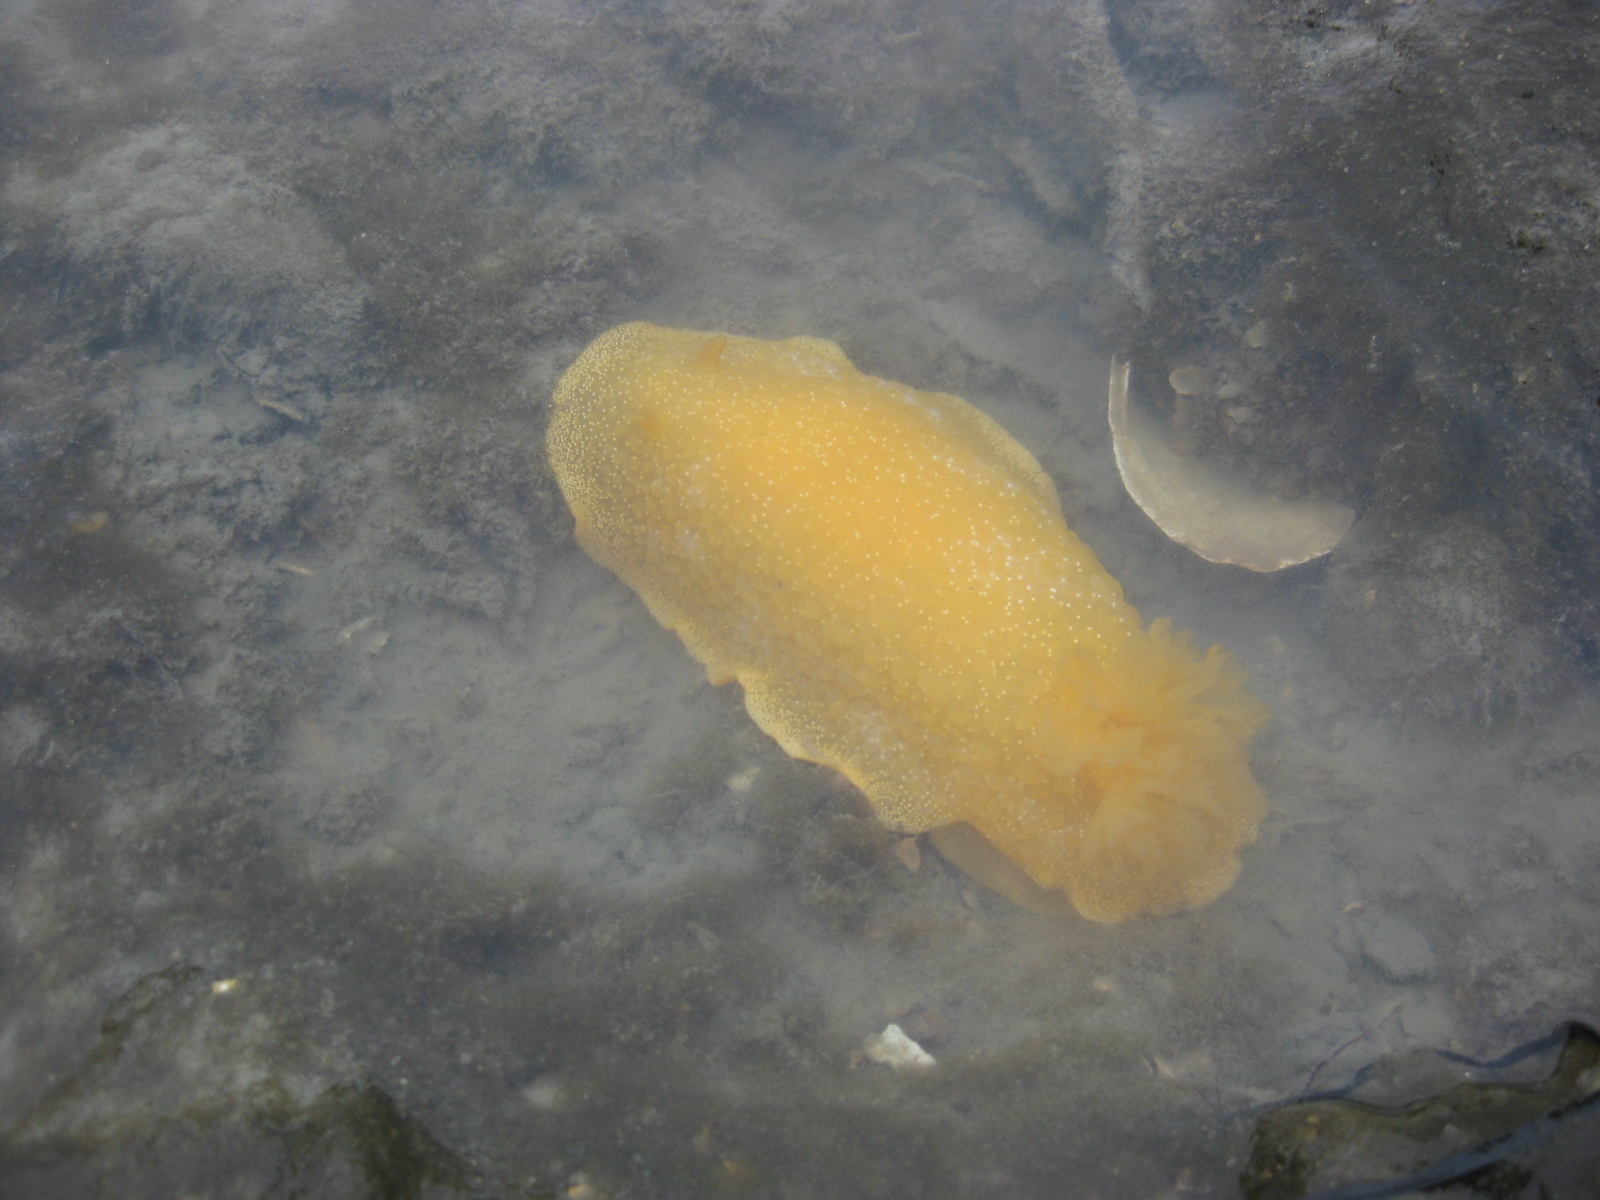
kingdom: Animalia
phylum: Mollusca
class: Gastropoda
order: Nudibranchia
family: Dendrodorididae
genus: Dendrodoris
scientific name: Dendrodoris citrina
